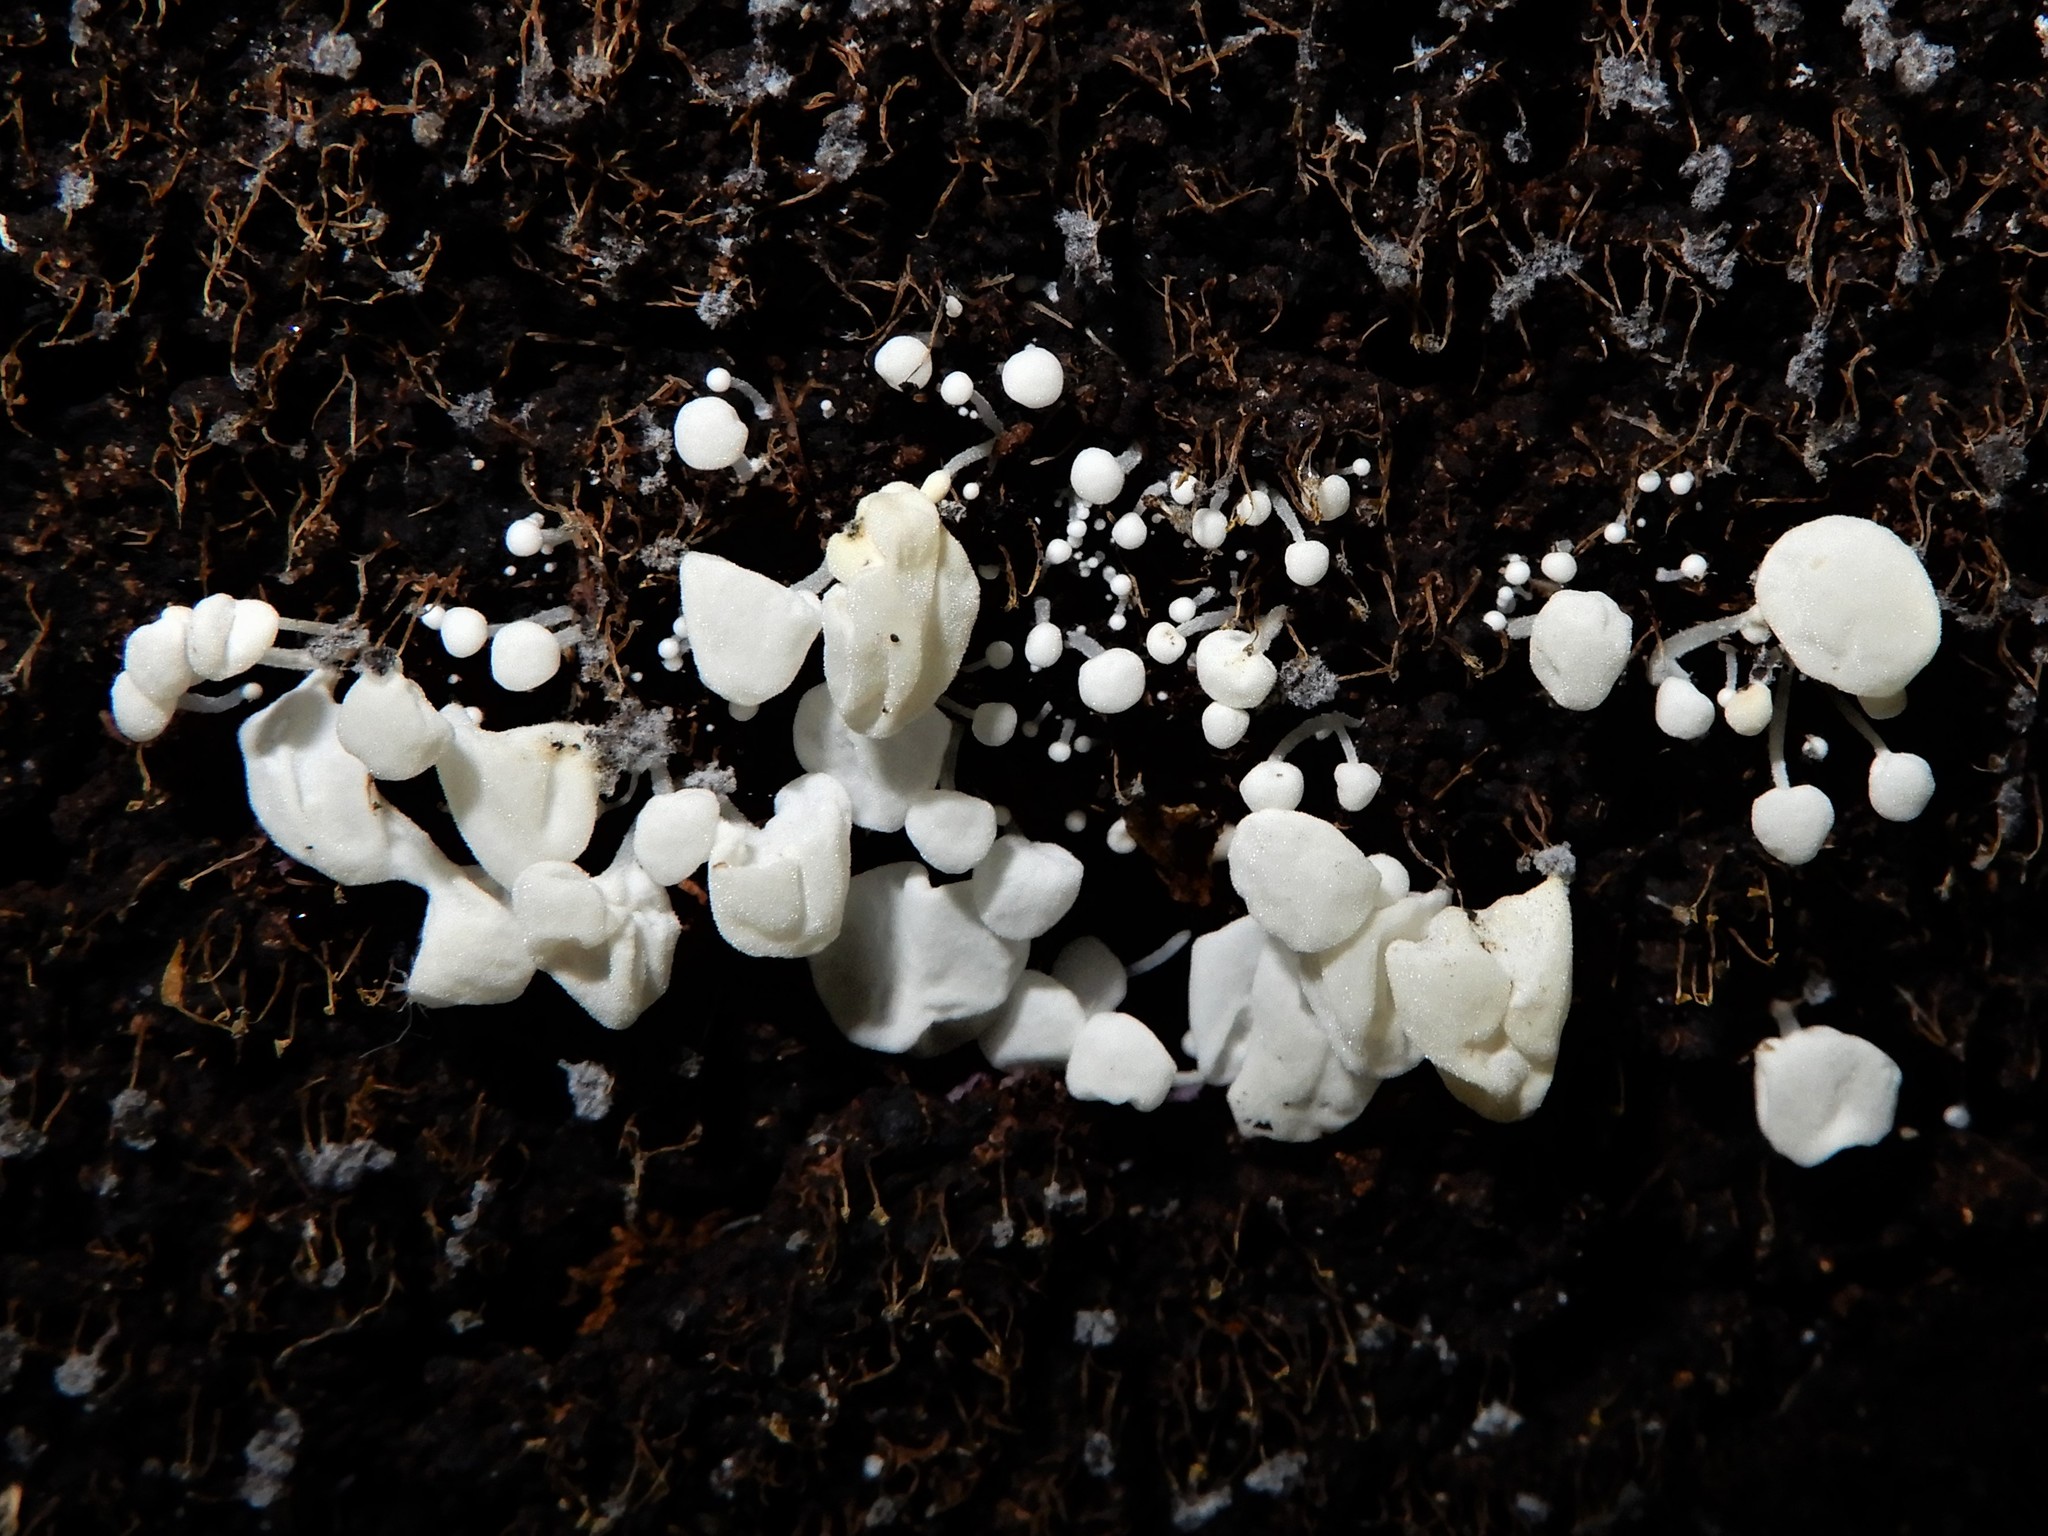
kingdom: Fungi
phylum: Basidiomycota
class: Agaricomycetes
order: Agaricales
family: Physalacriaceae
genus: Physalacria
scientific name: Physalacria pseudotropica
